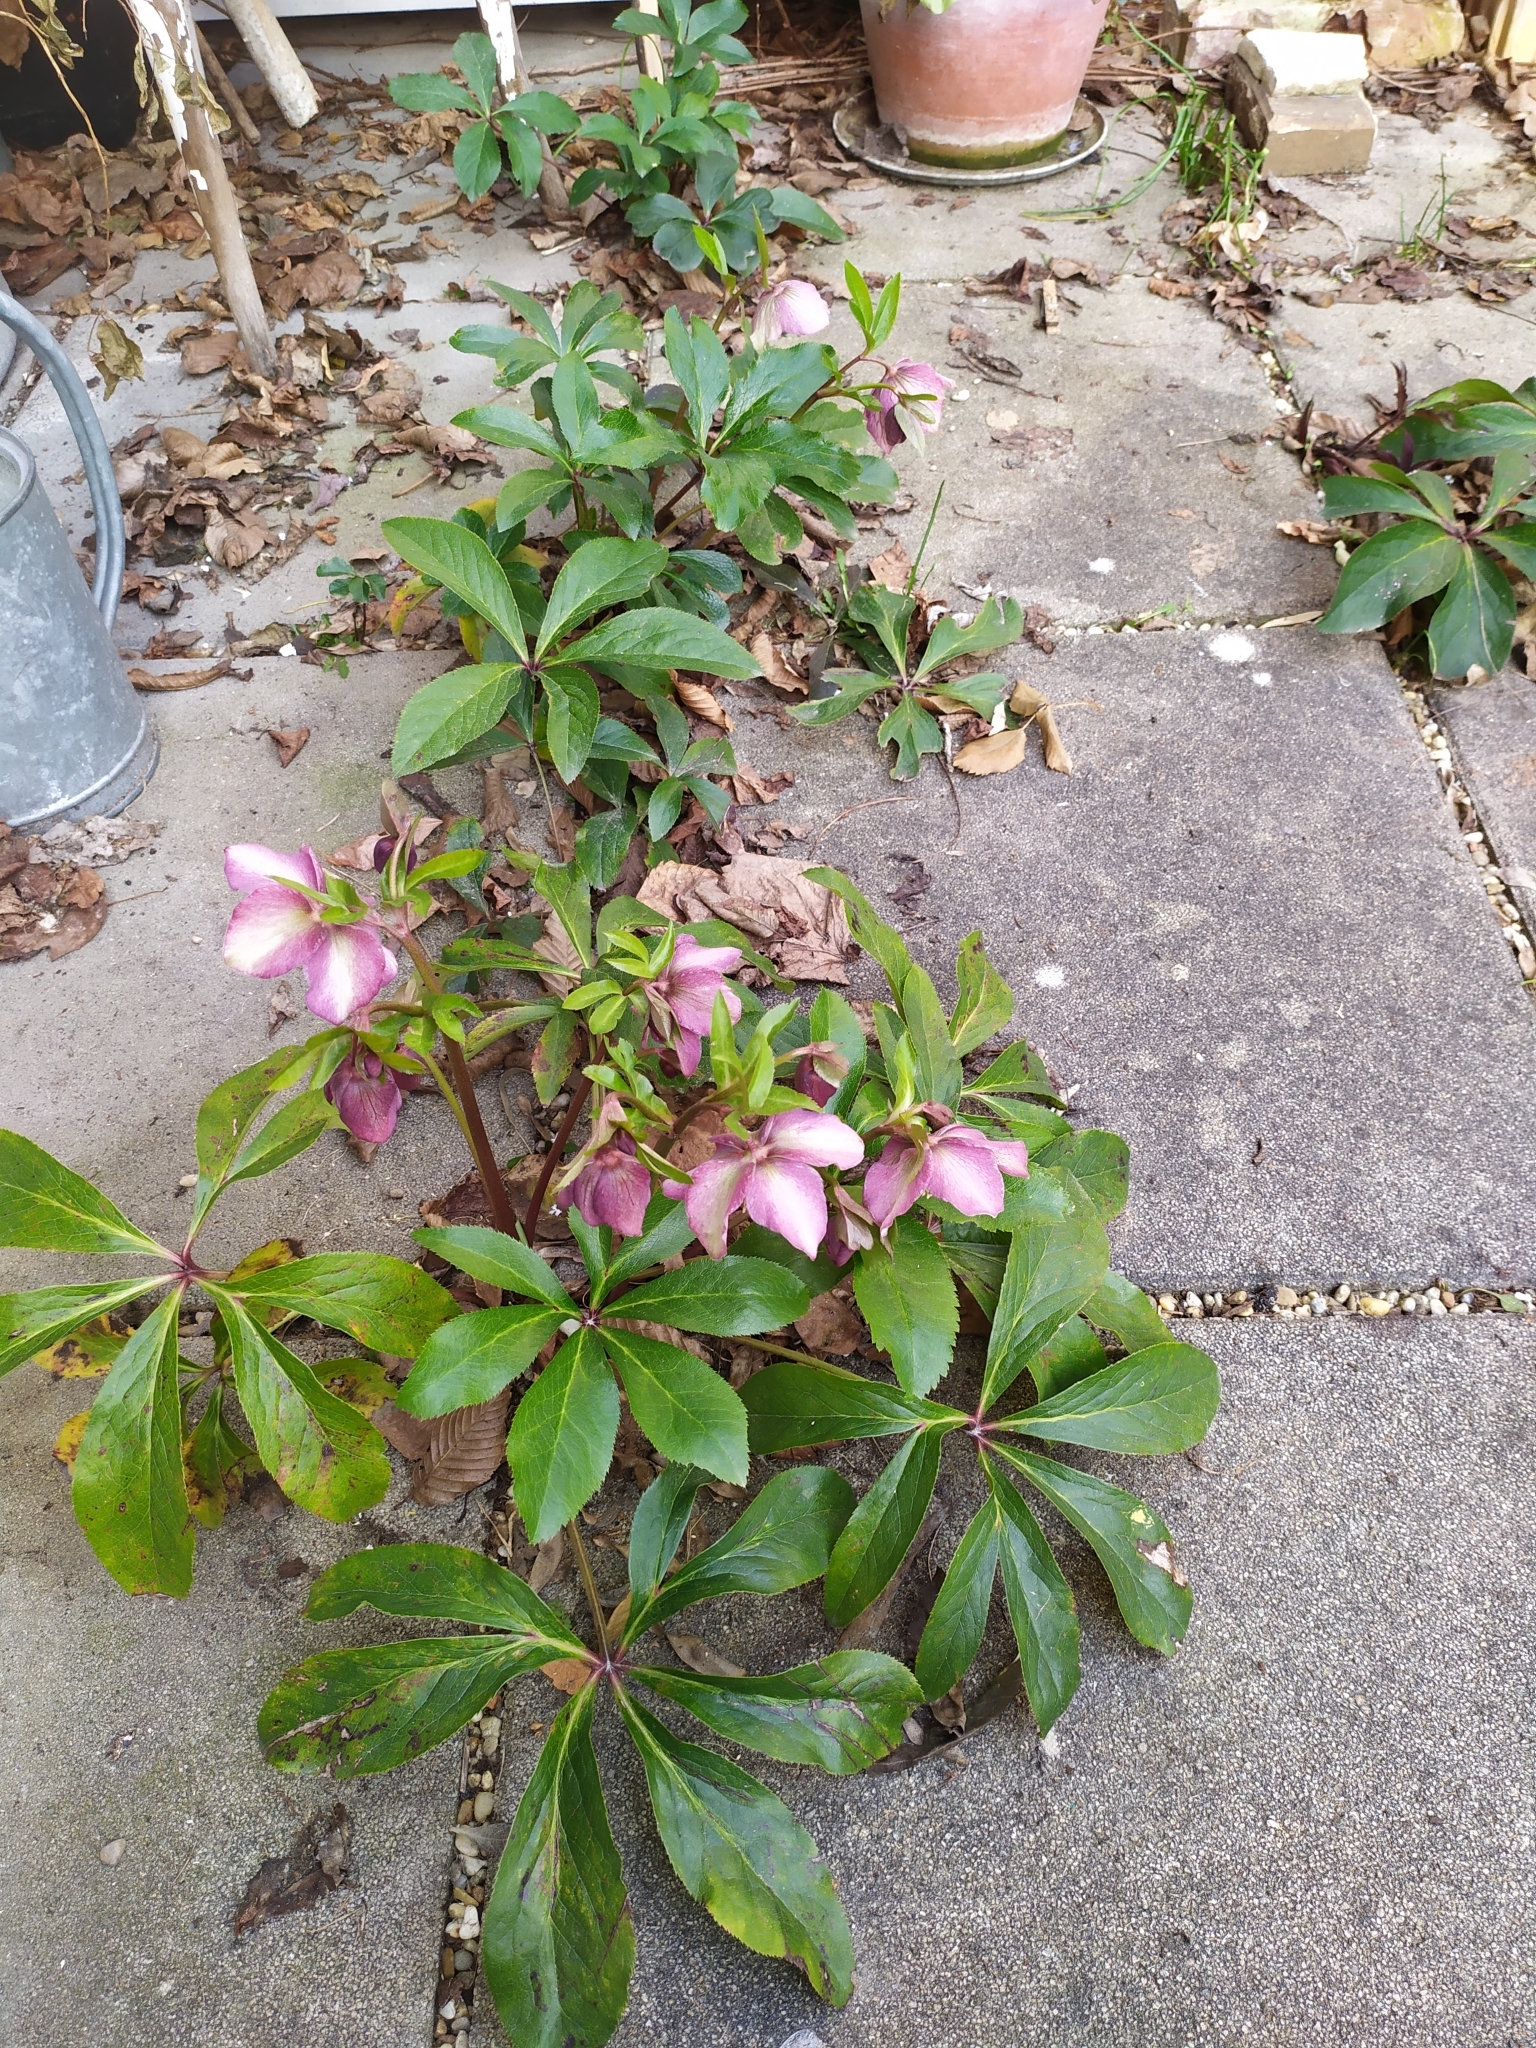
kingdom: Plantae
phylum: Tracheophyta
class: Magnoliopsida
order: Ranunculales
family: Ranunculaceae
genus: Helleborus
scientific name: Helleborus hybridus
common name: Hybrid lenten-rose
